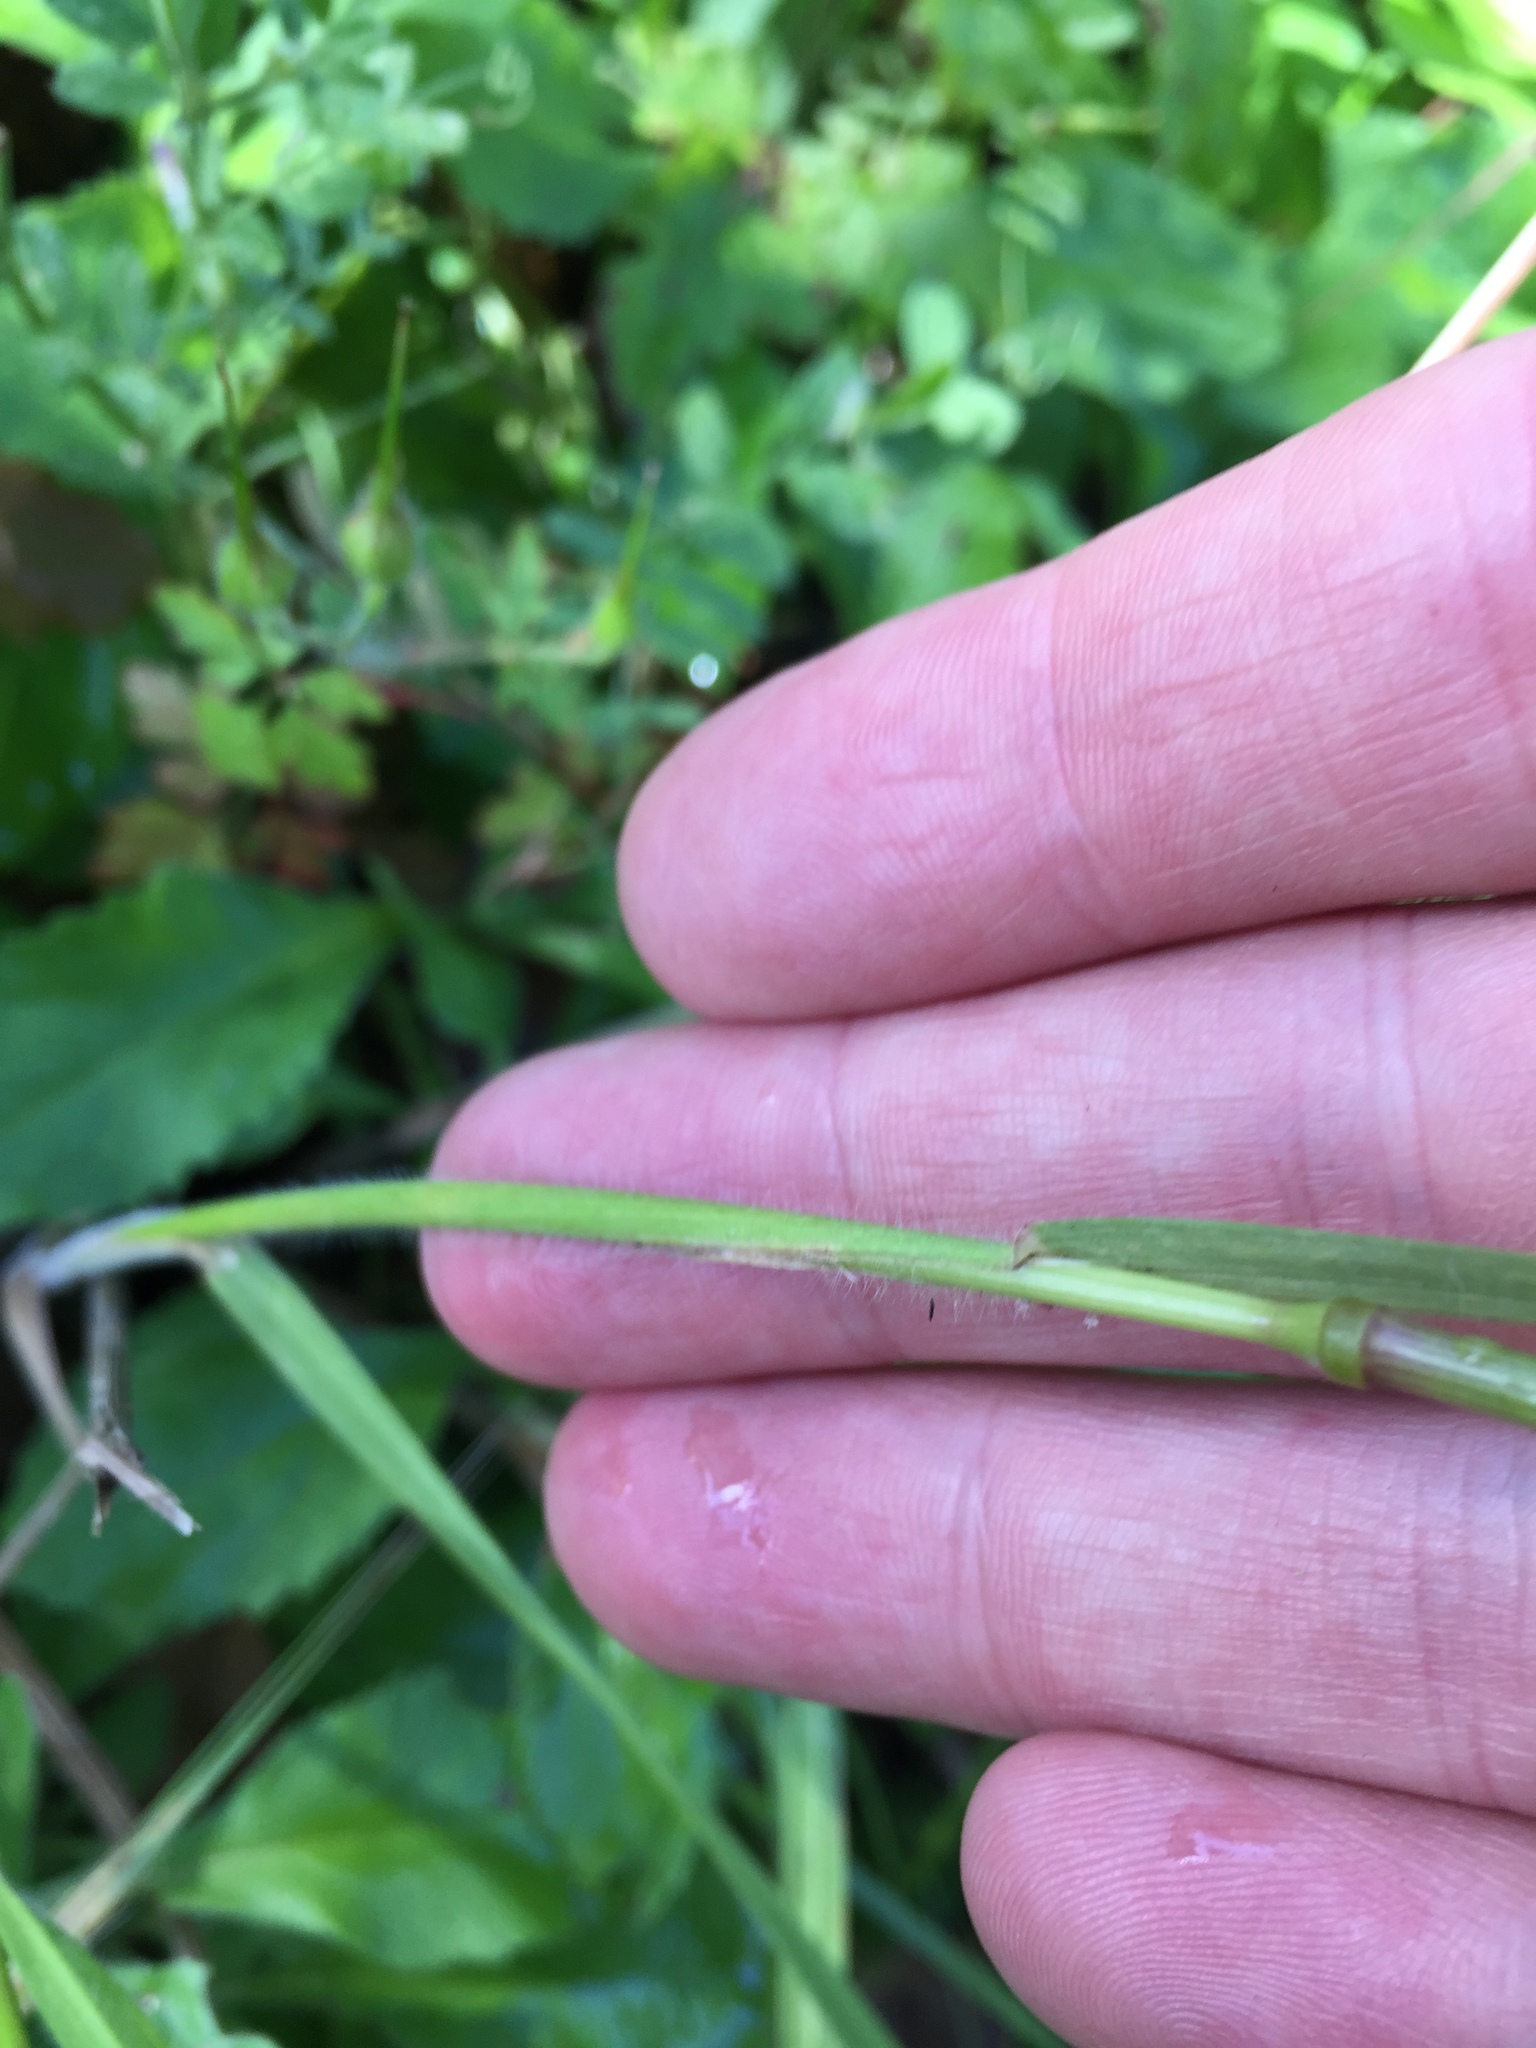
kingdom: Plantae
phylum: Tracheophyta
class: Liliopsida
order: Poales
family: Poaceae
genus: Bromus
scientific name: Bromus carinatus
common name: Mountain brome
